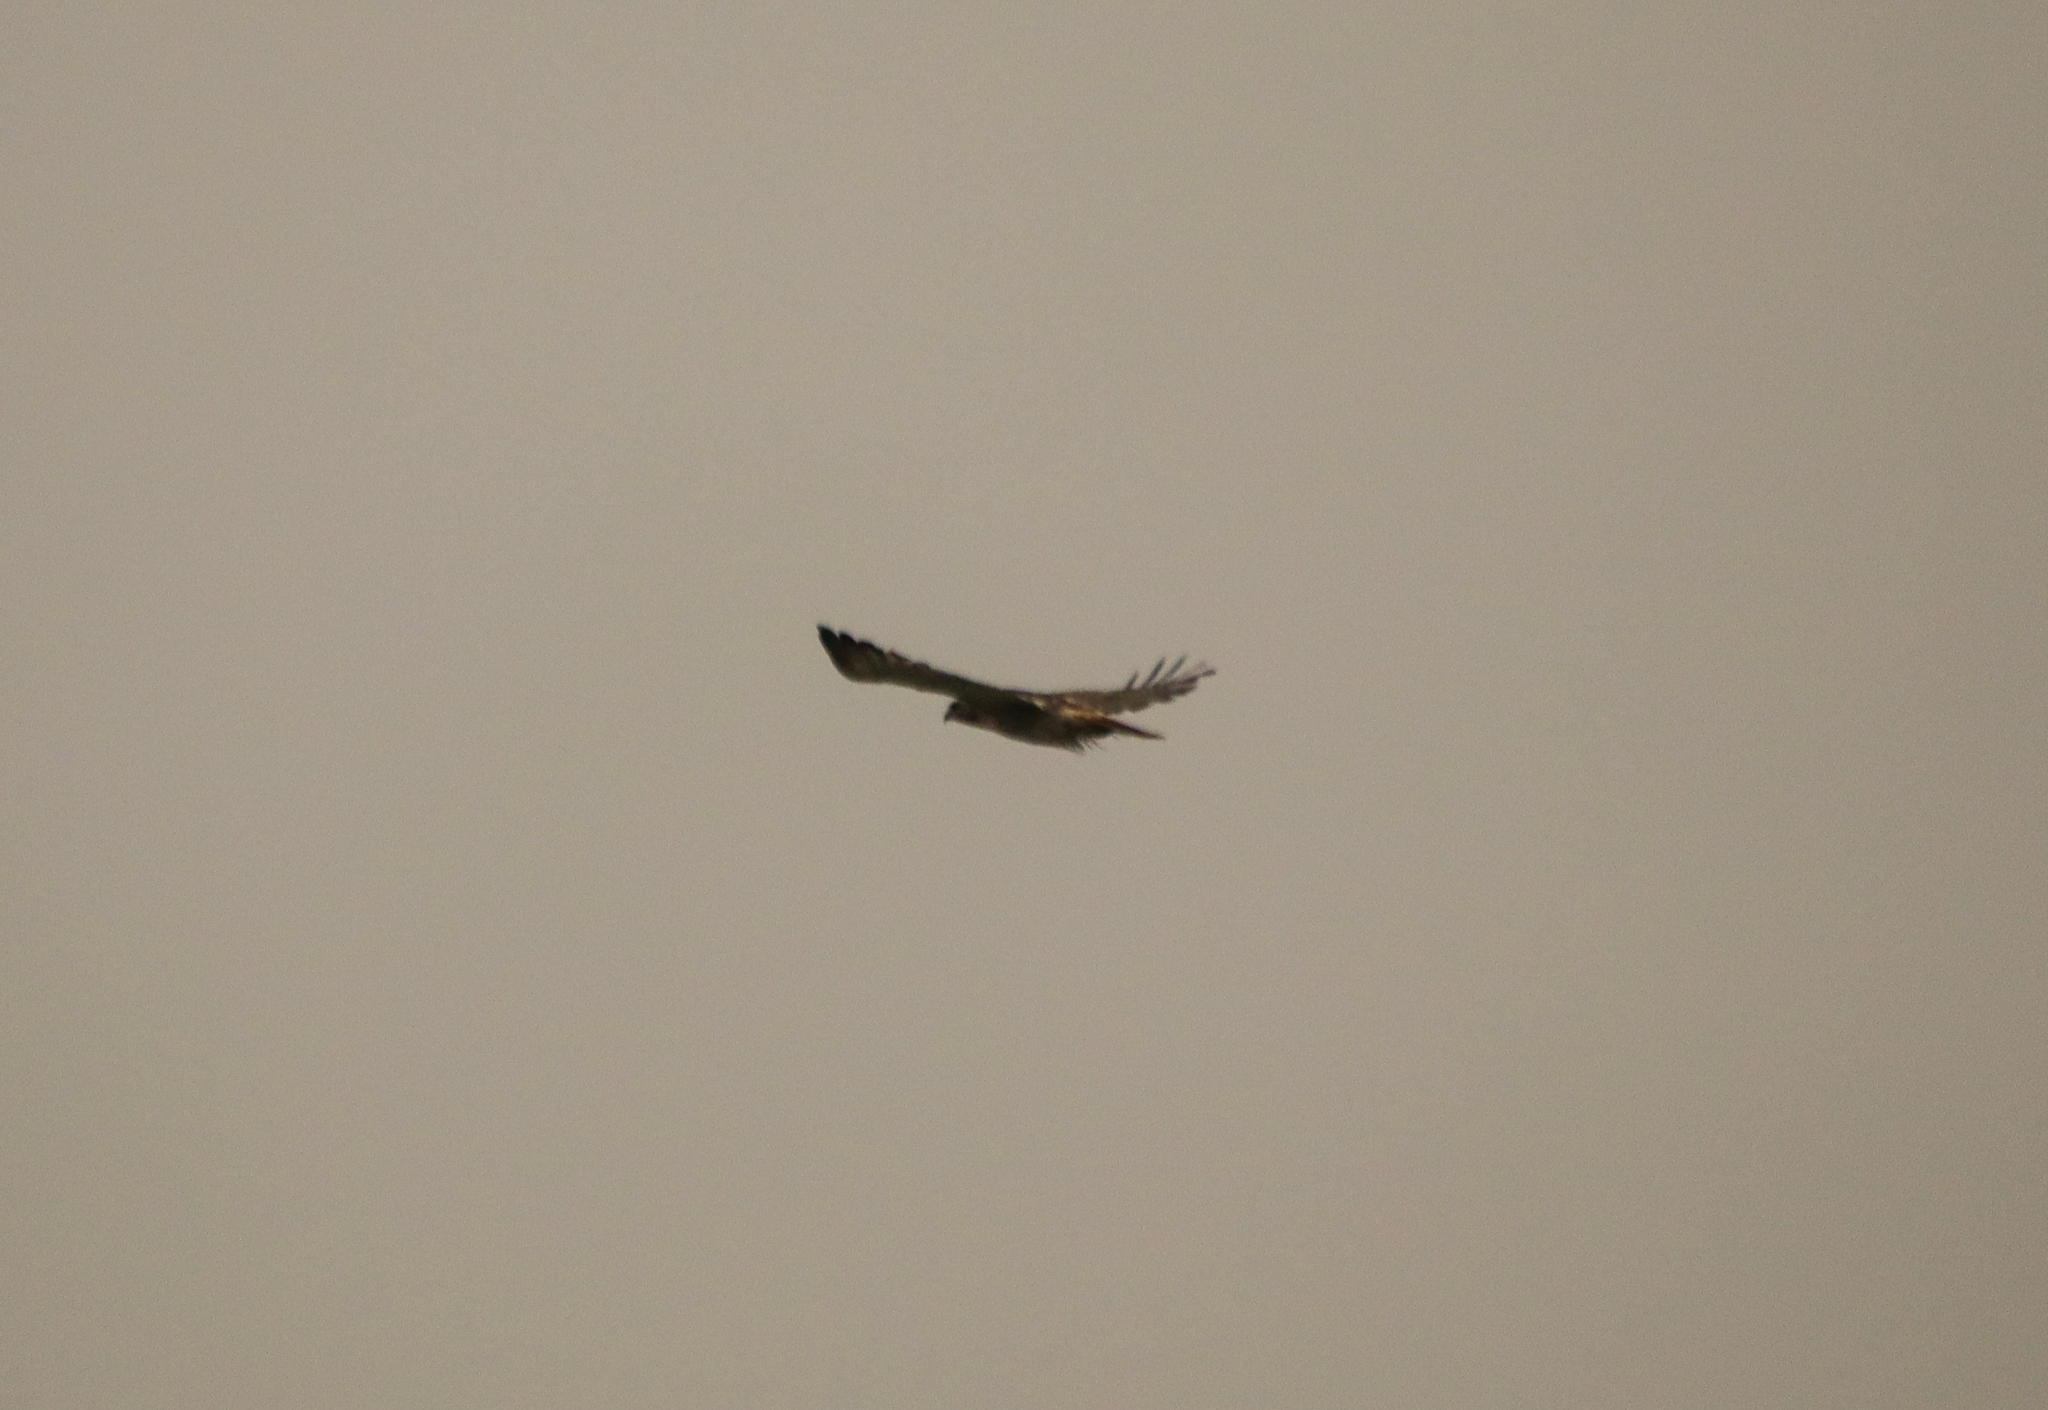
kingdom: Animalia
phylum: Chordata
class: Aves
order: Accipitriformes
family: Accipitridae
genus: Buteo
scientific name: Buteo jamaicensis
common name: Red-tailed hawk
